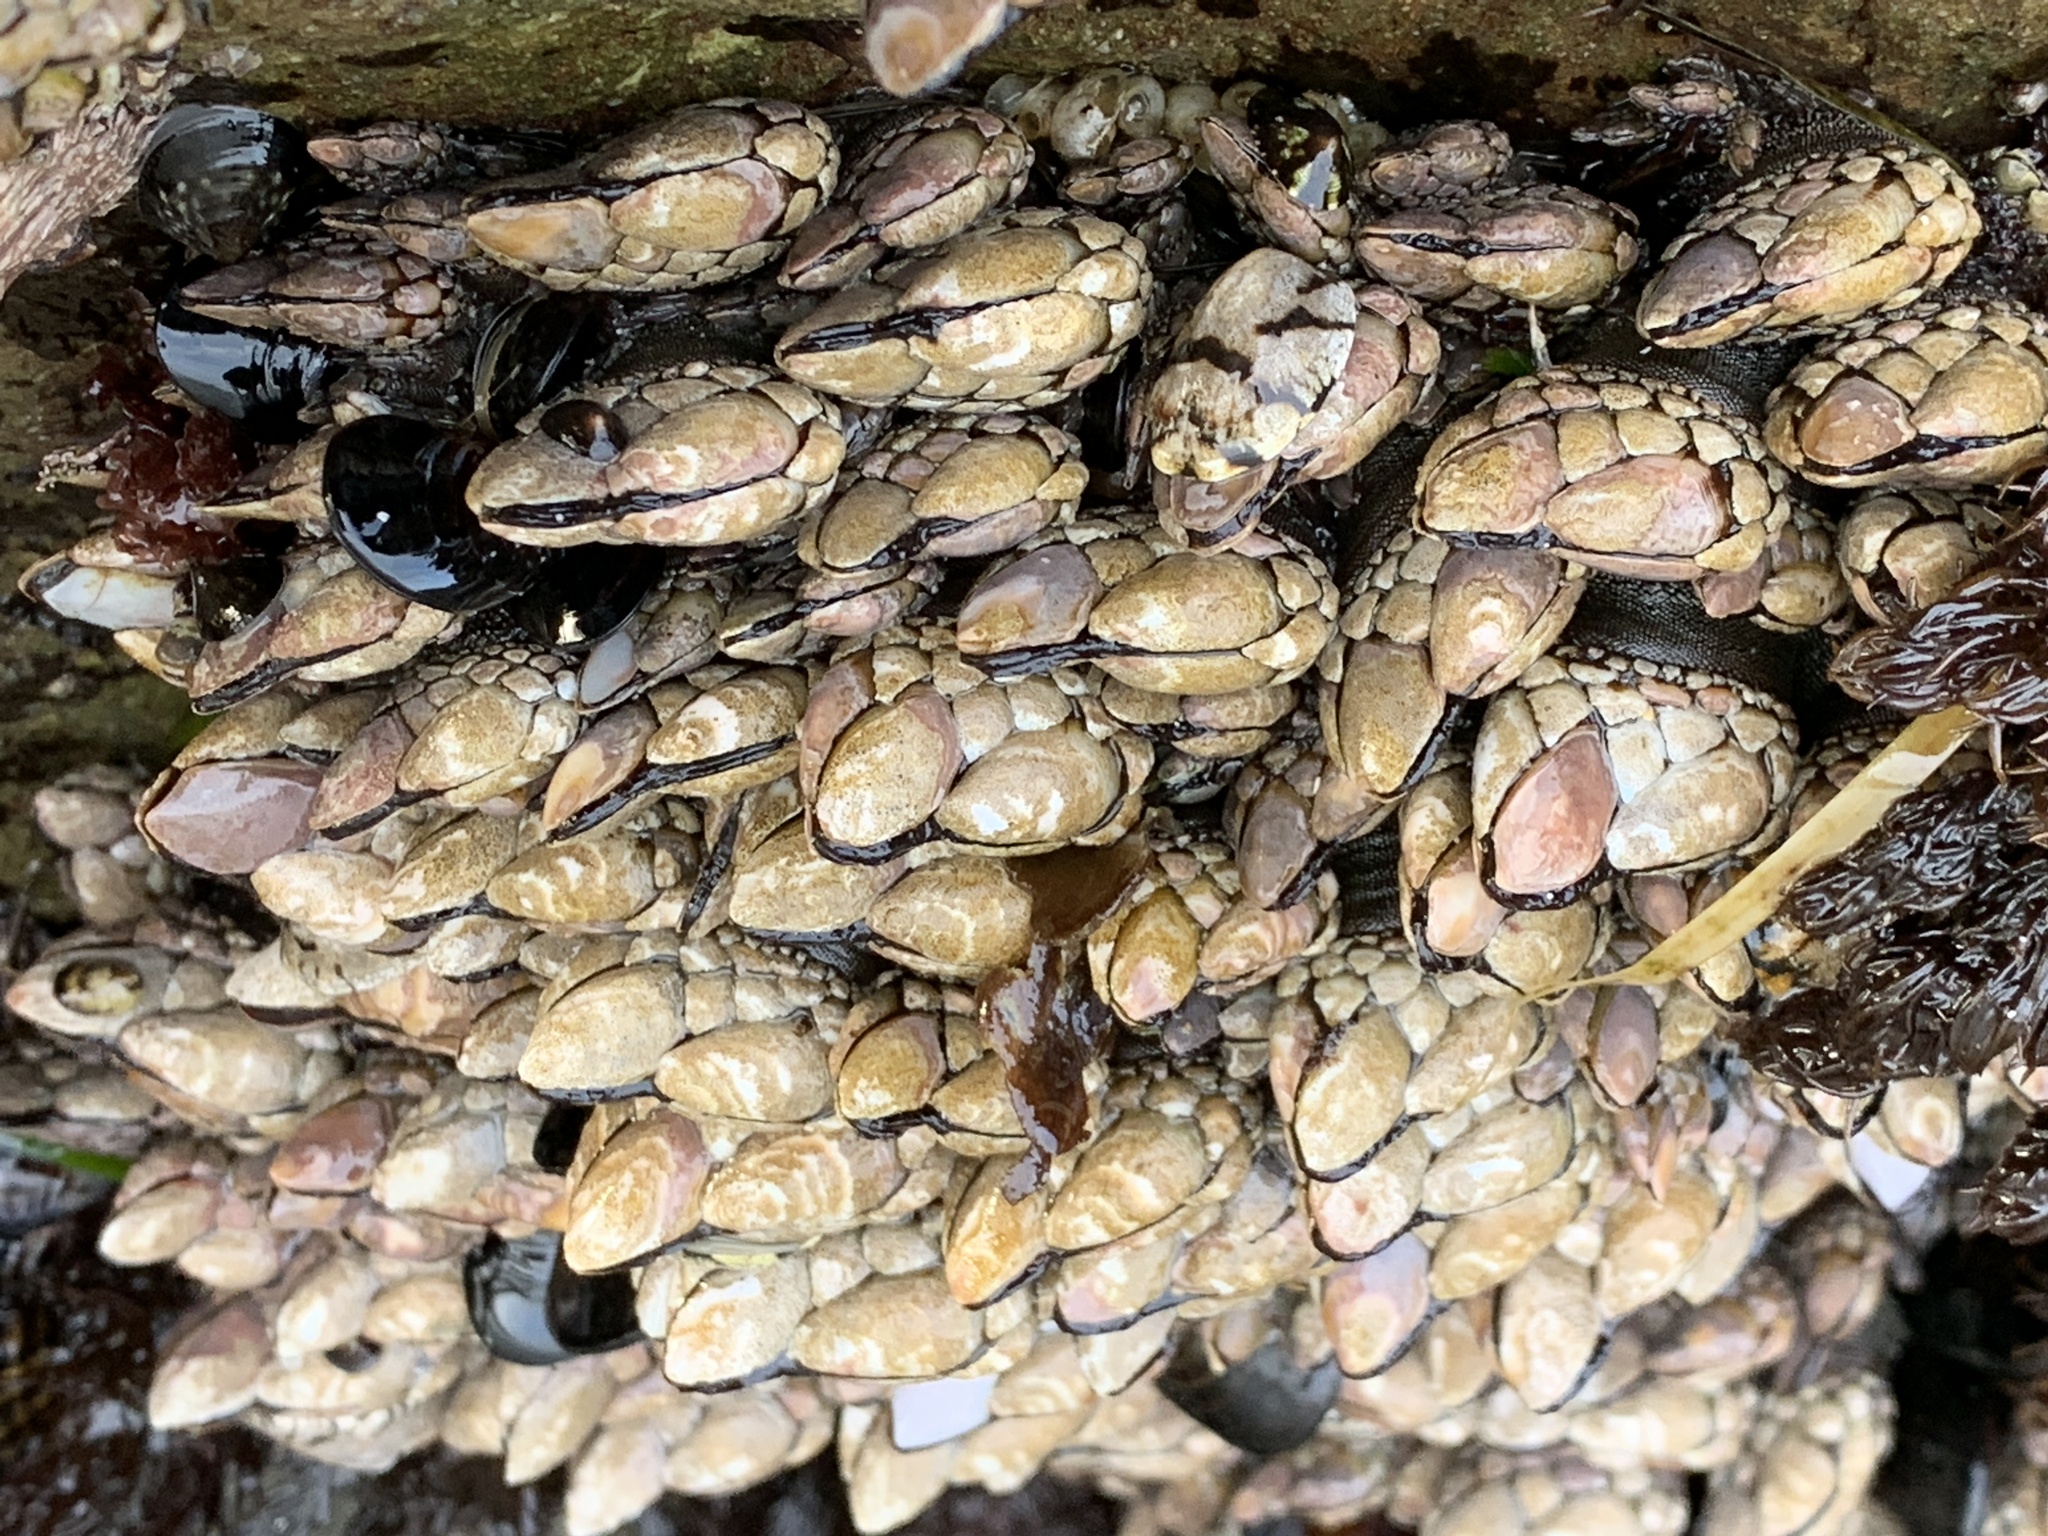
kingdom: Animalia
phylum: Arthropoda
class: Maxillopoda
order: Pedunculata
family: Pollicipedidae
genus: Pollicipes
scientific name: Pollicipes polymerus
